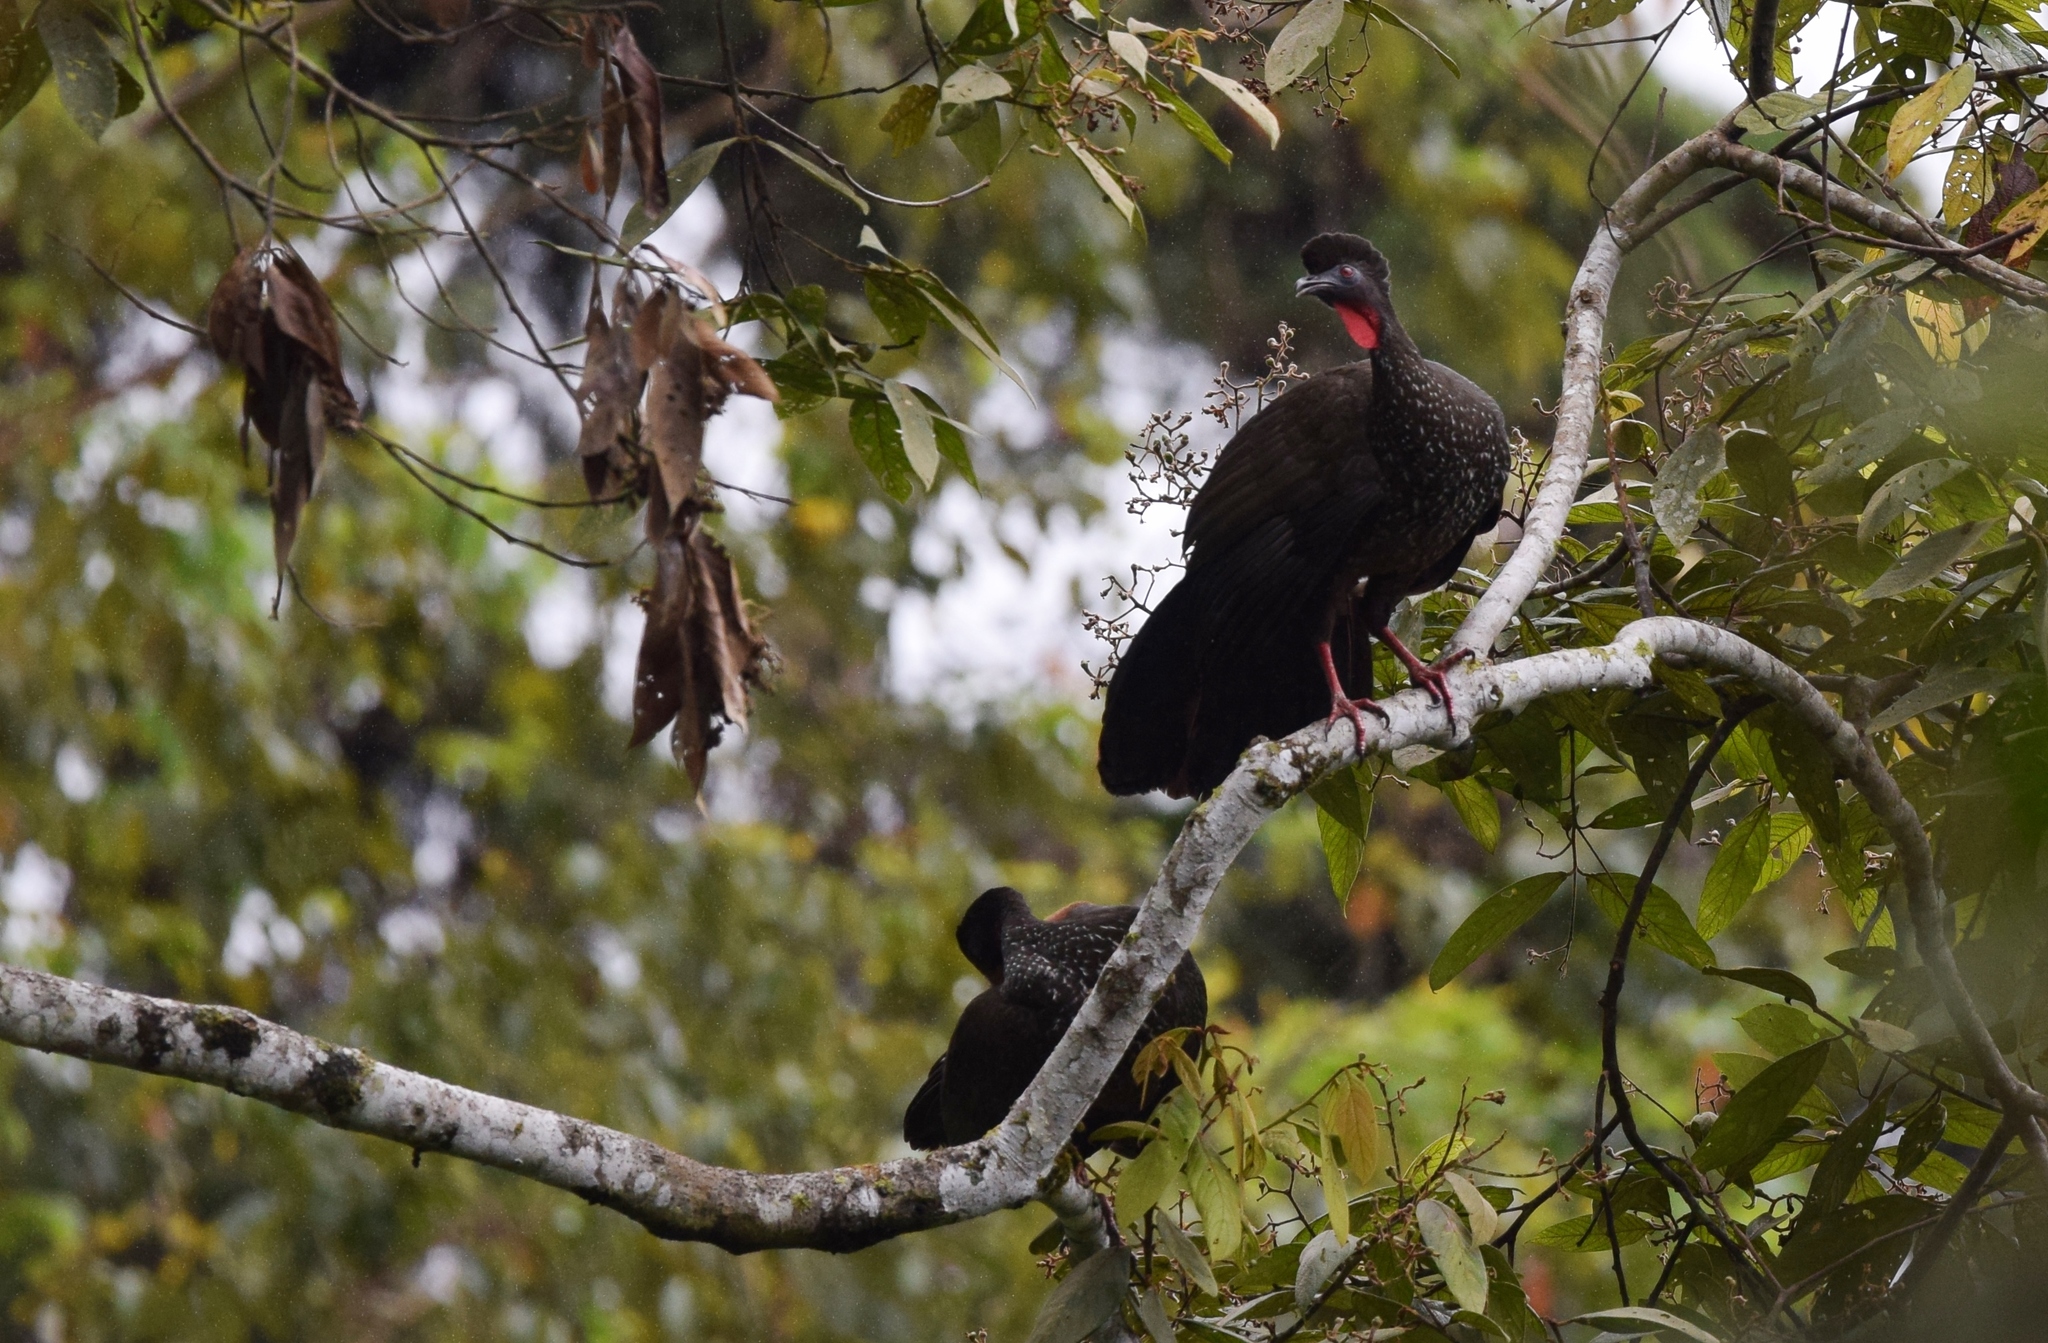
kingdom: Animalia
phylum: Chordata
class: Aves
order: Galliformes
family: Cracidae
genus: Penelope
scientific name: Penelope purpurascens
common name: Crested guan
